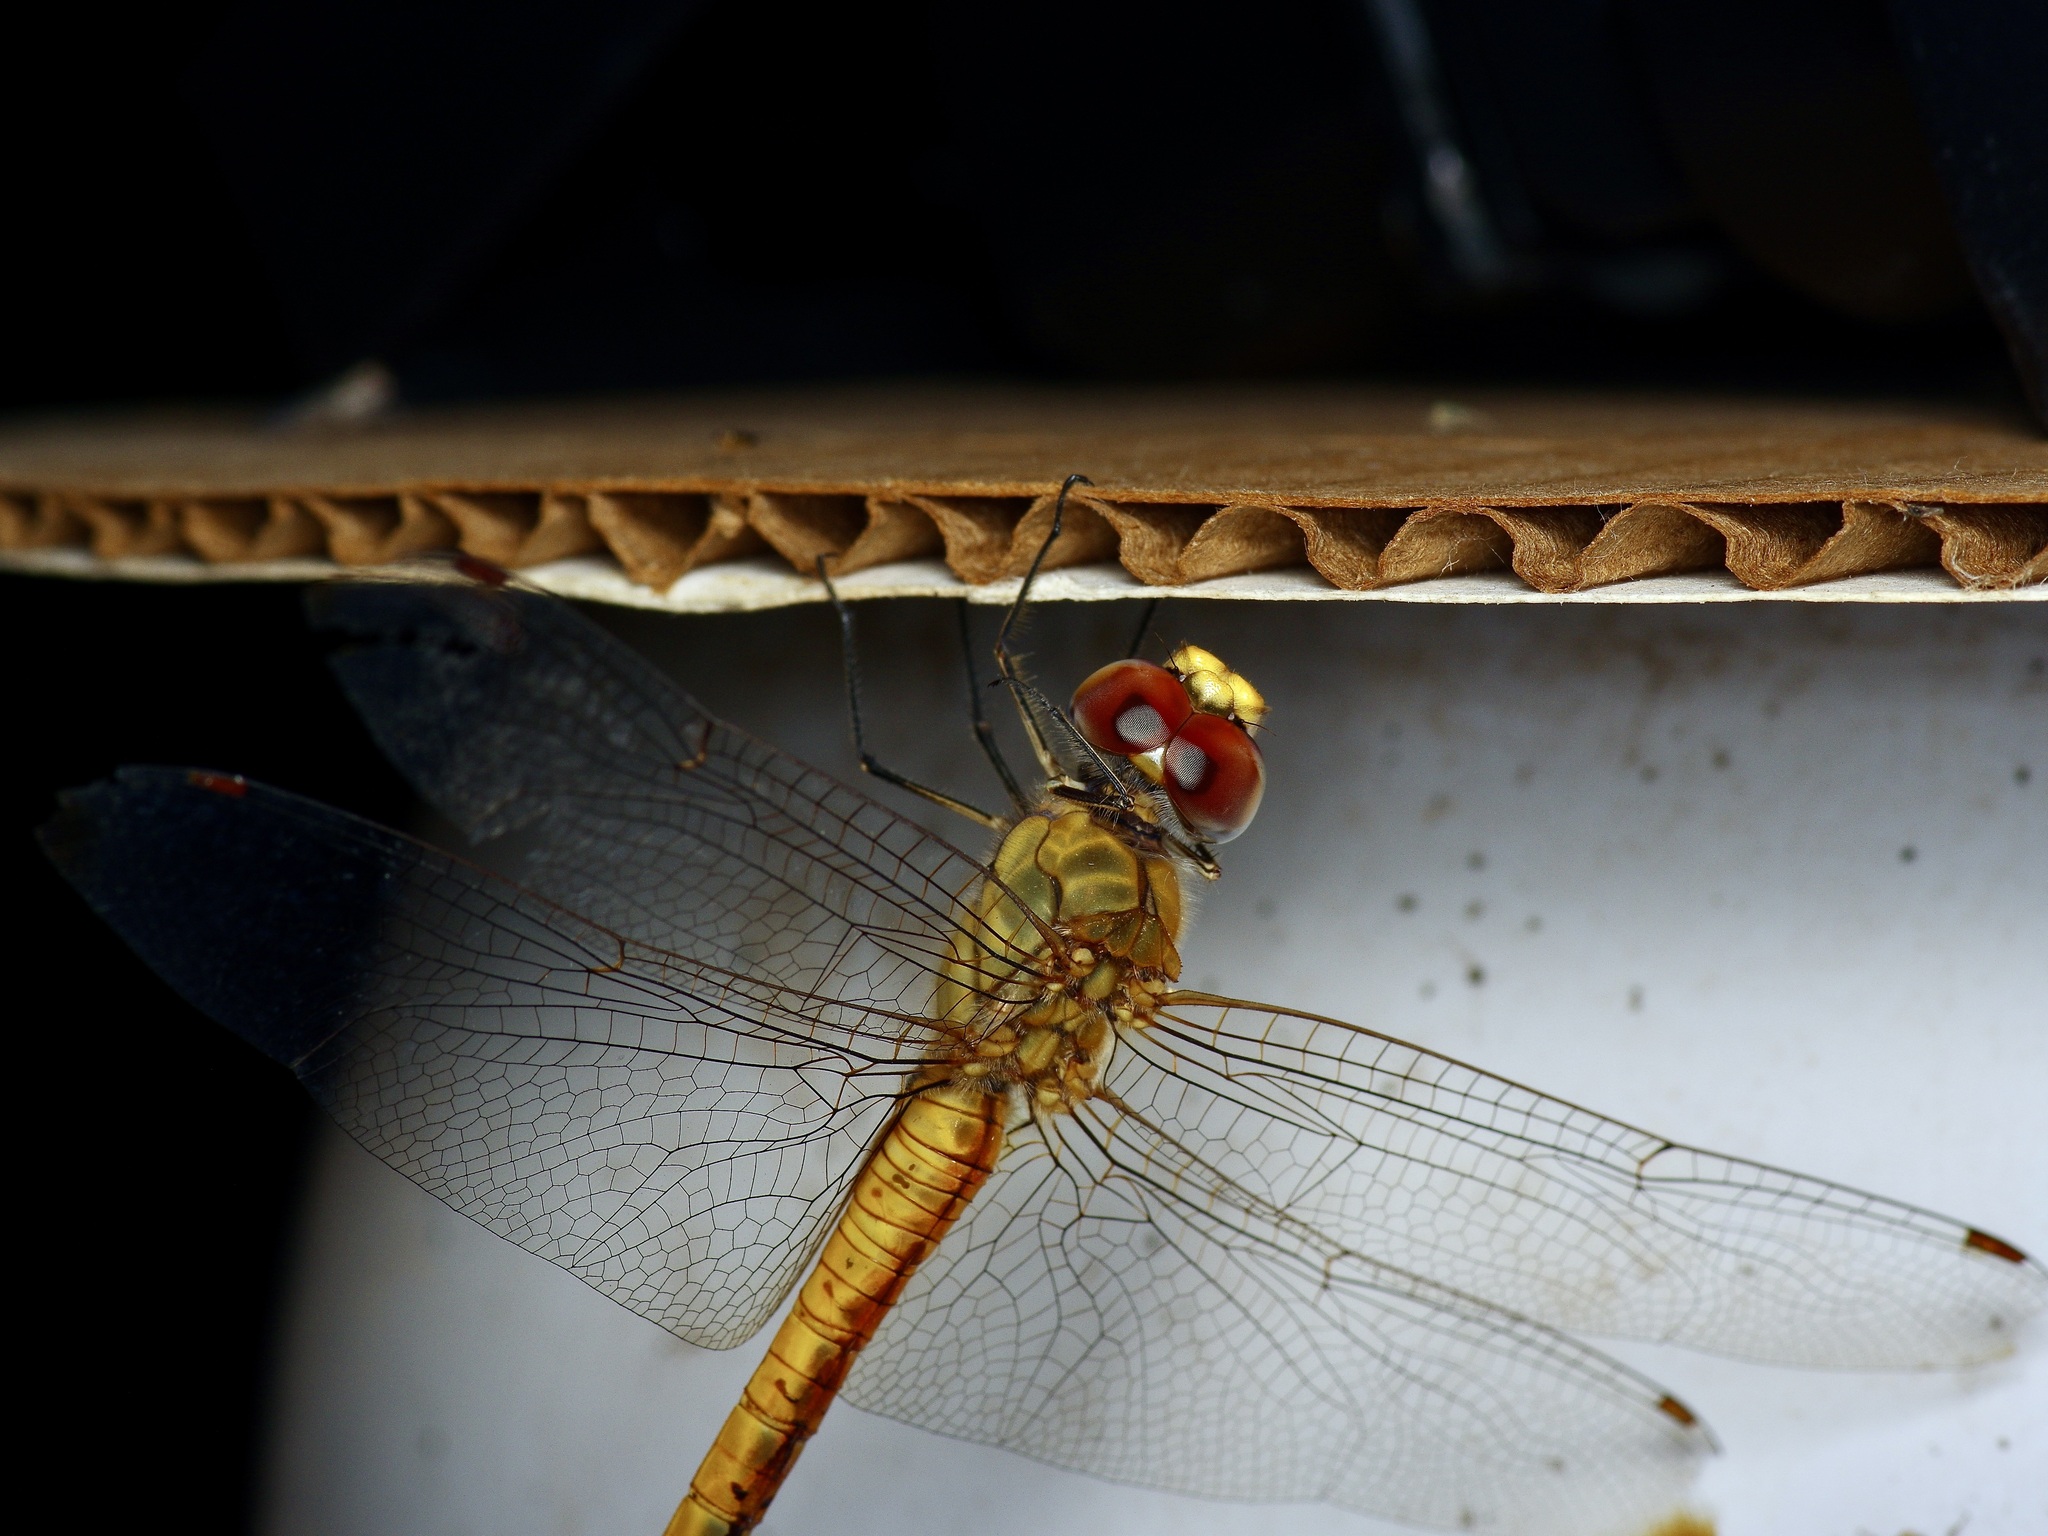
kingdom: Animalia
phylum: Arthropoda
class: Insecta
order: Odonata
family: Libellulidae
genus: Pantala
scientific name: Pantala flavescens
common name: Wandering glider
